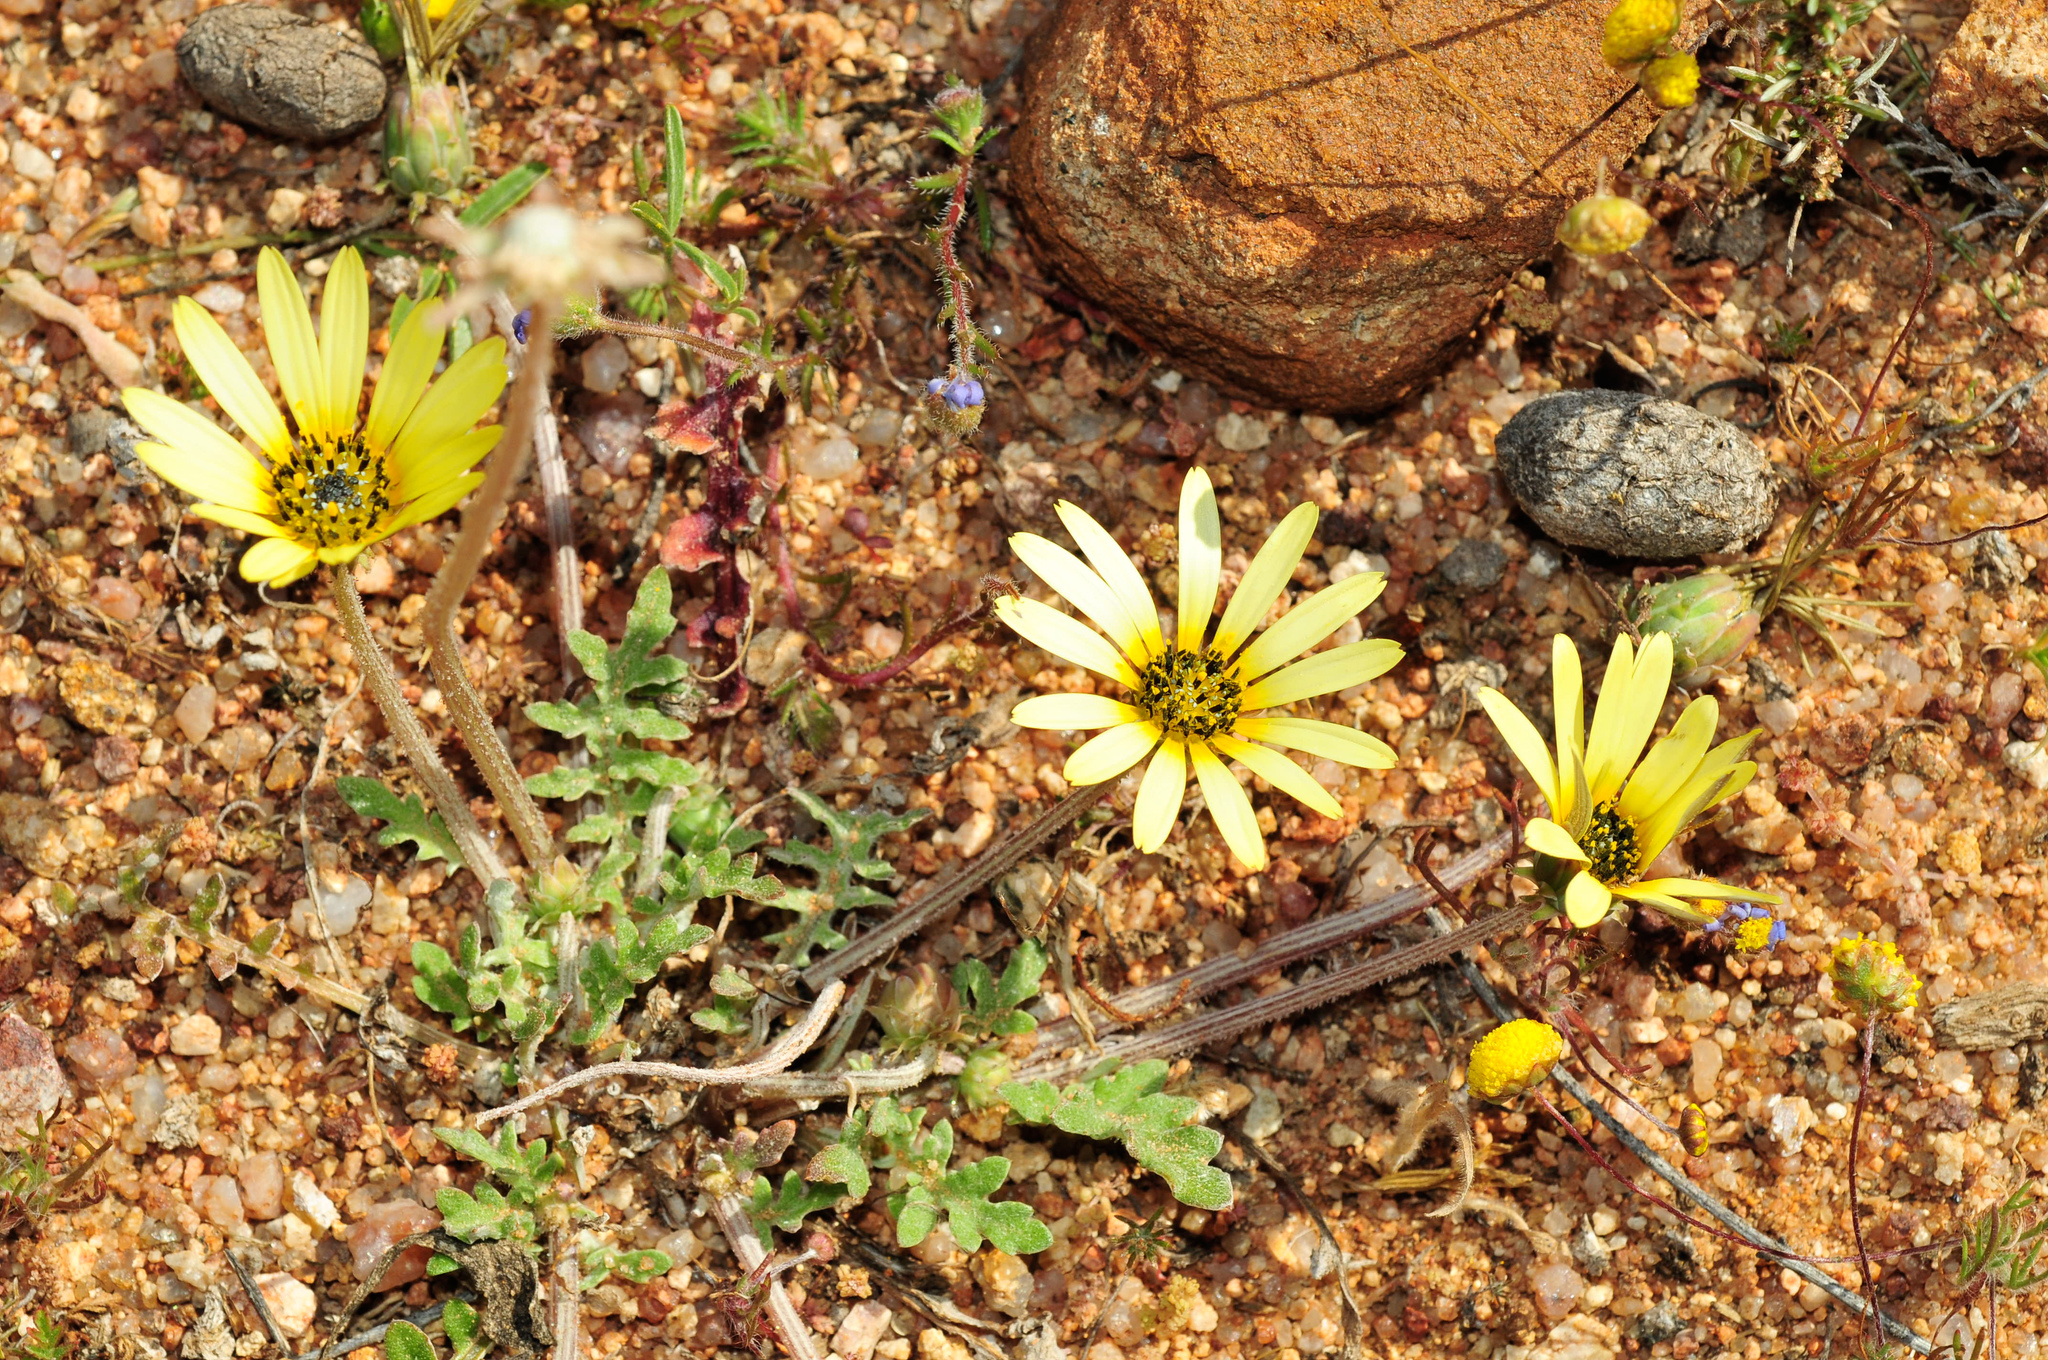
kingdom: Plantae
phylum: Tracheophyta
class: Magnoliopsida
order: Asterales
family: Asteraceae
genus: Arctotheca
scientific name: Arctotheca calendula
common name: Capeweed
